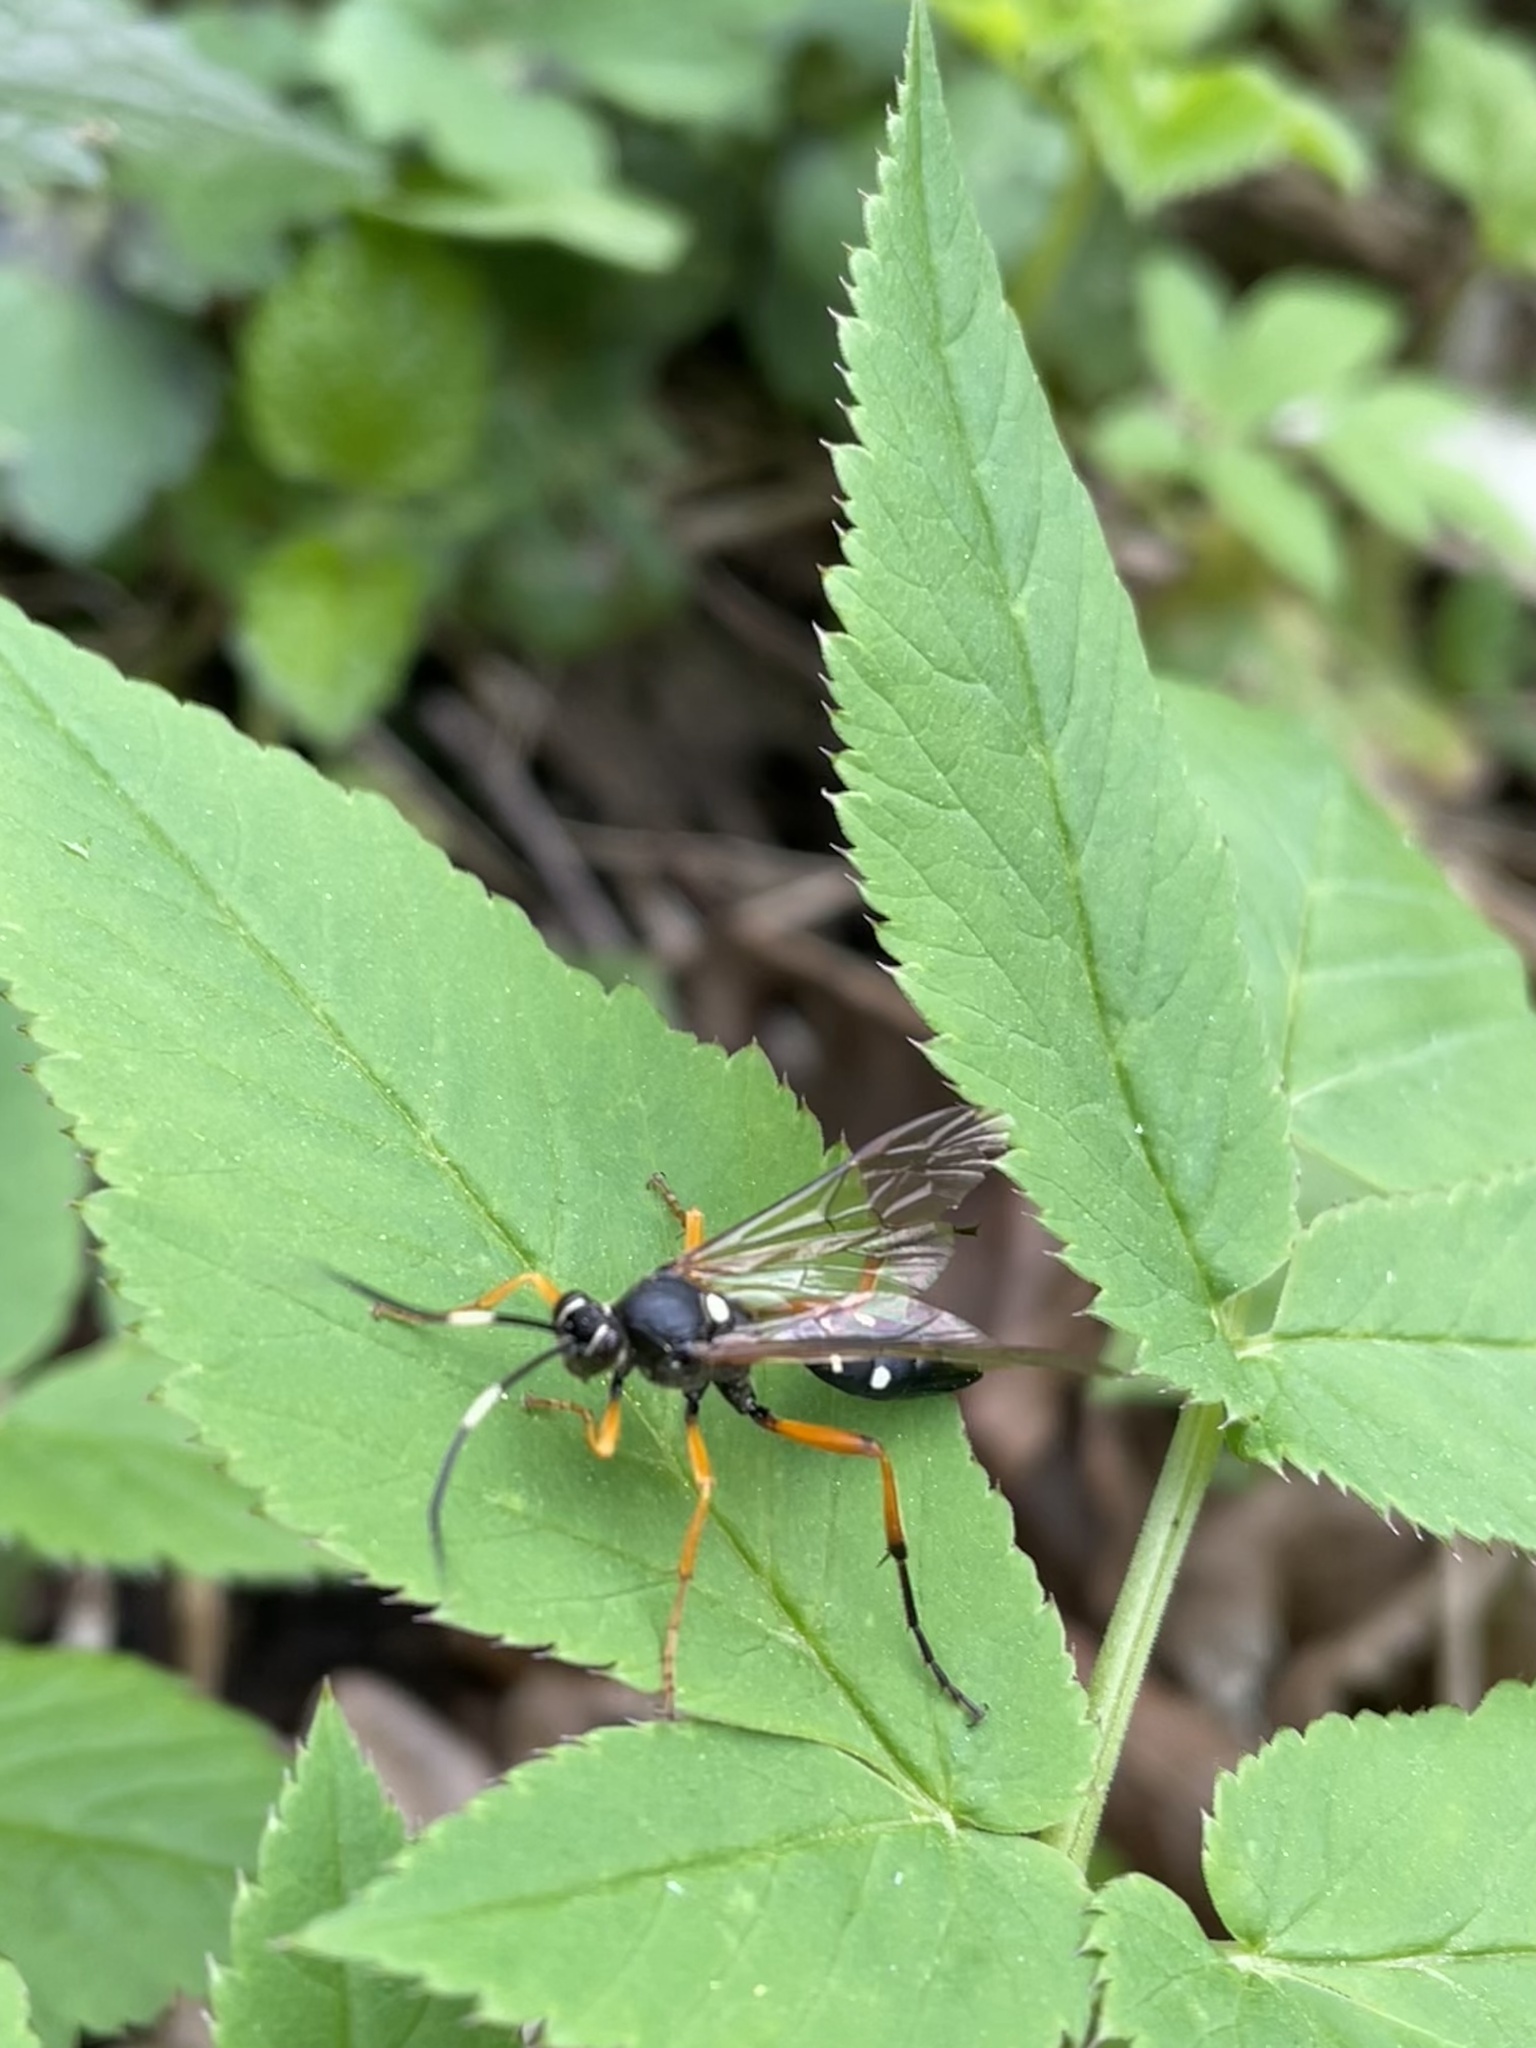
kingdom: Animalia
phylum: Arthropoda
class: Insecta
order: Hymenoptera
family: Ichneumonidae
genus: Diphyus
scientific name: Diphyus quadripunctorius
